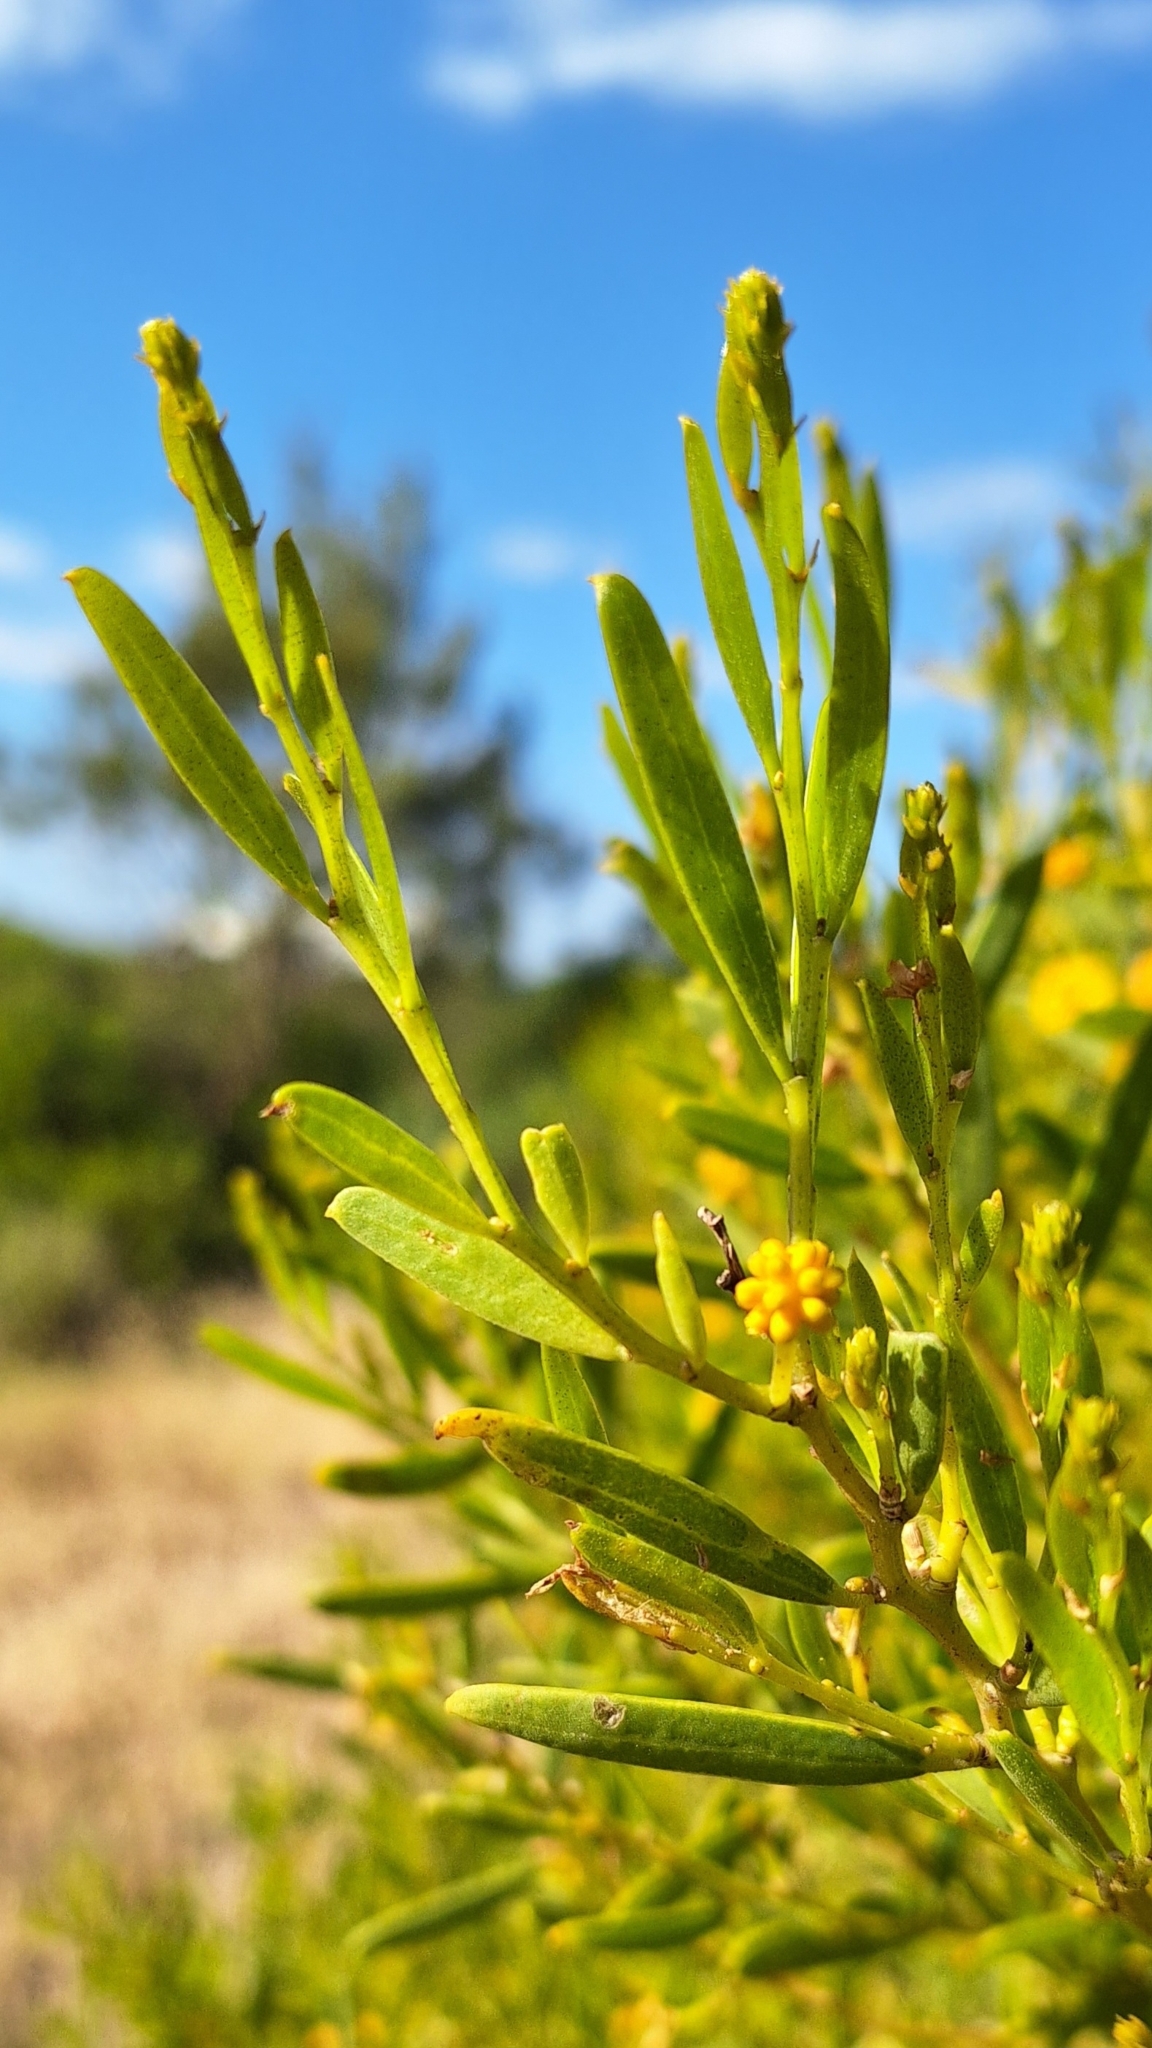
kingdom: Plantae
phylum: Tracheophyta
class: Magnoliopsida
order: Fabales
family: Fabaceae
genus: Acacia
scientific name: Acacia ligulata
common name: Dune wattle
